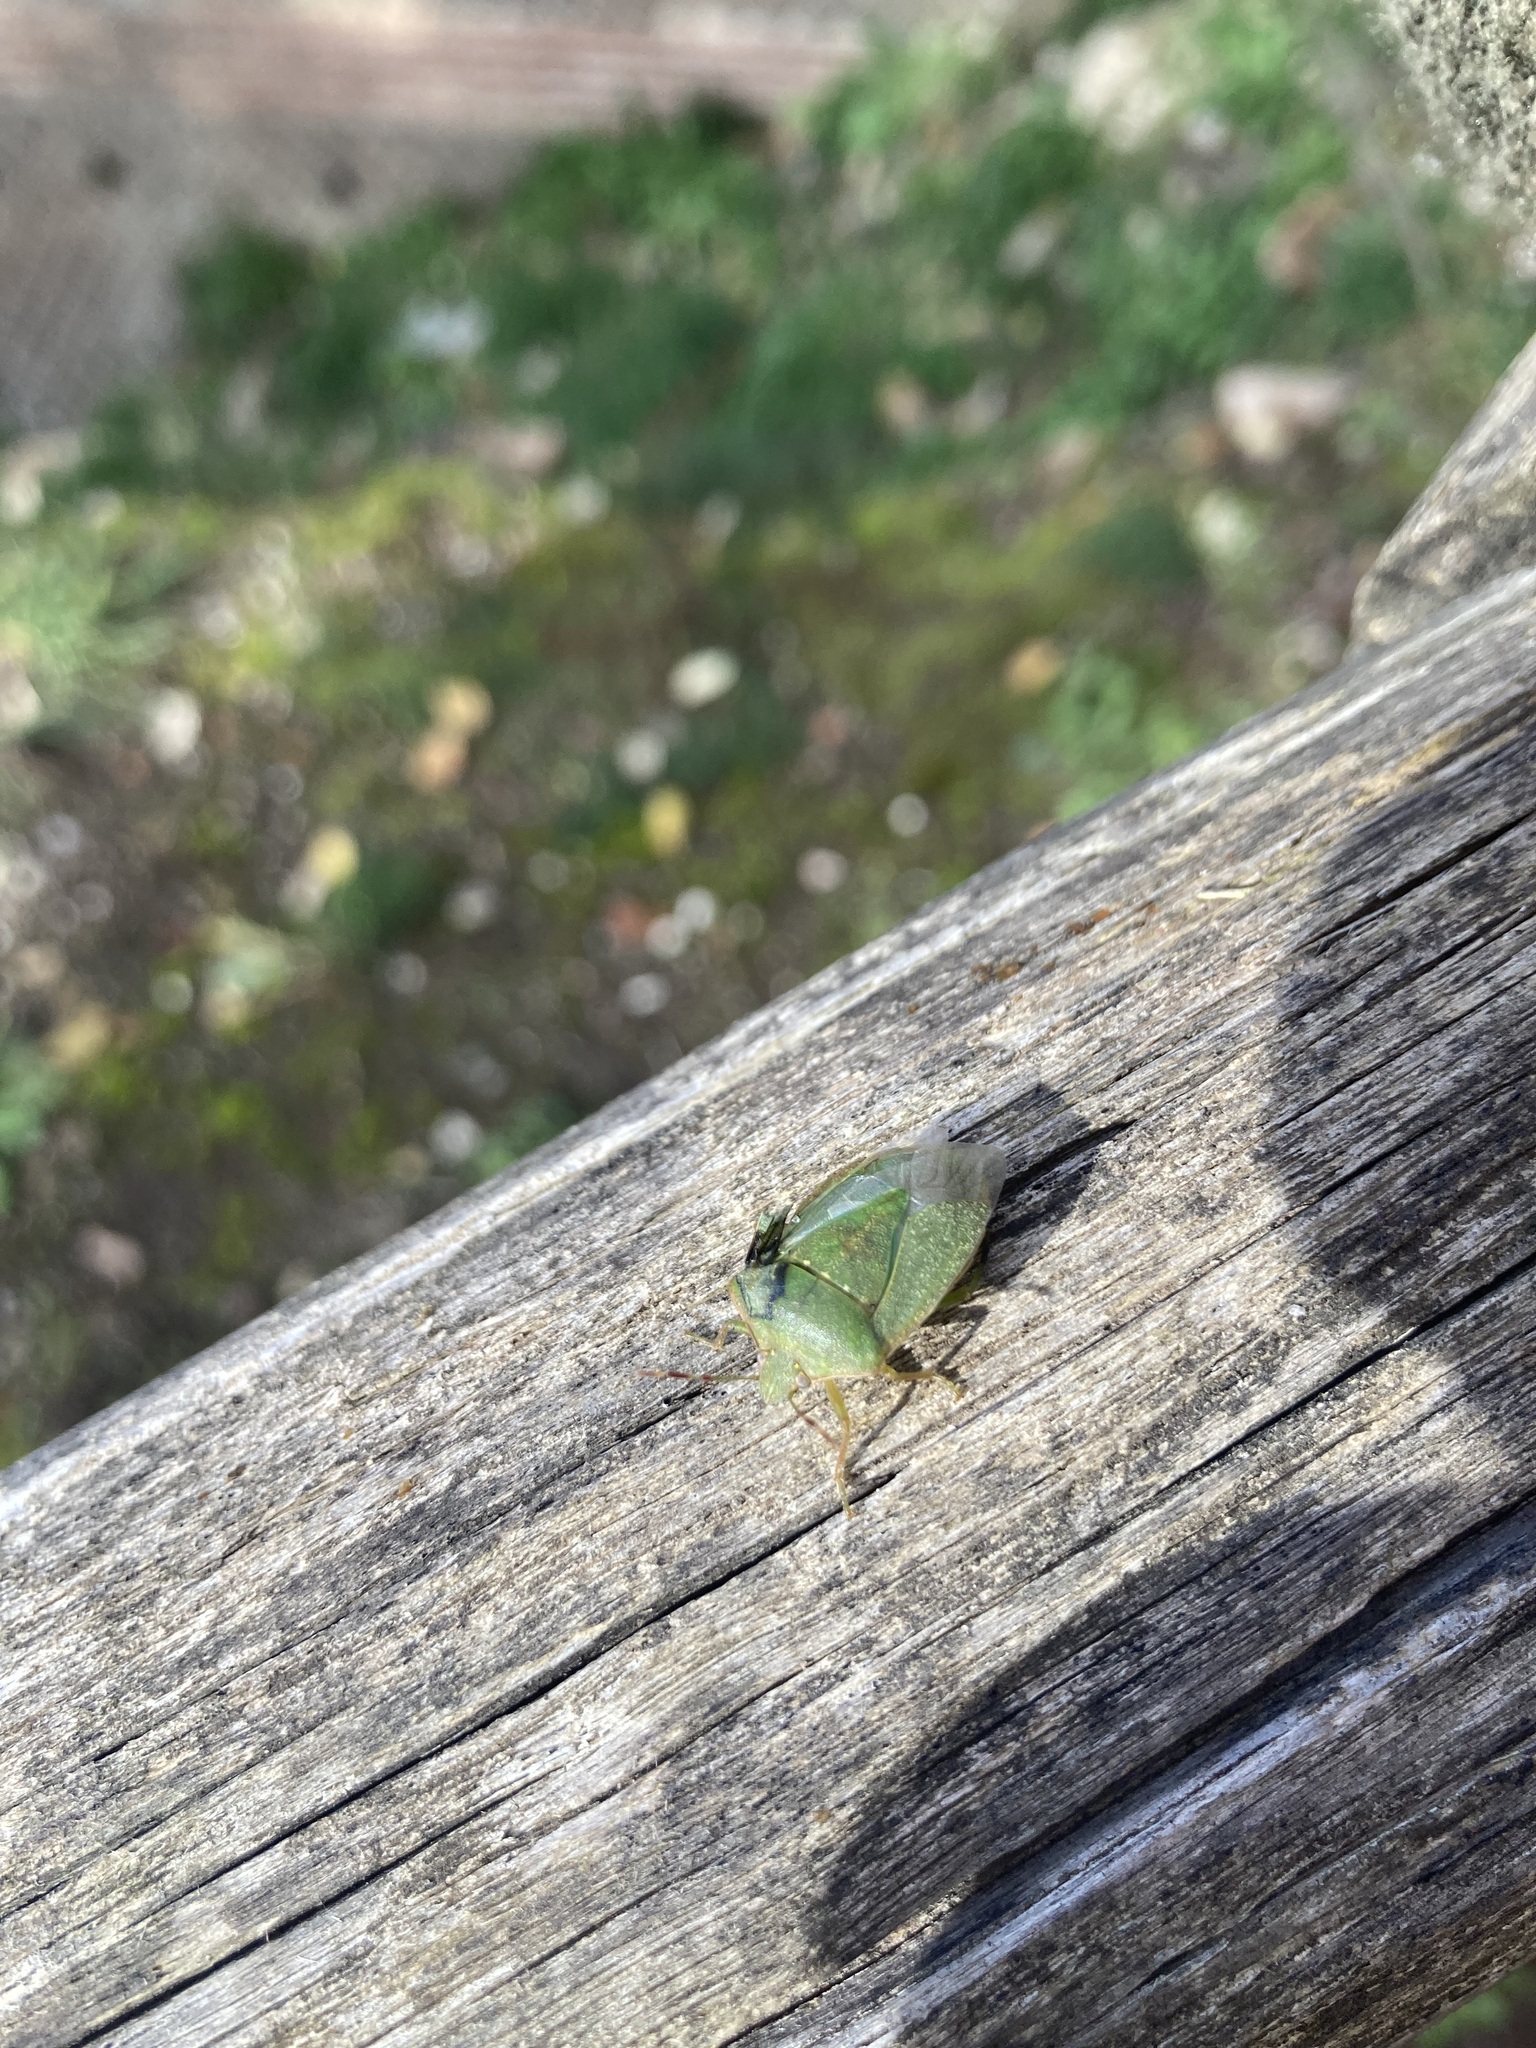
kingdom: Animalia
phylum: Arthropoda
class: Insecta
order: Hemiptera
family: Pentatomidae
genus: Nezara
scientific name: Nezara viridula
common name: Southern green stink bug
